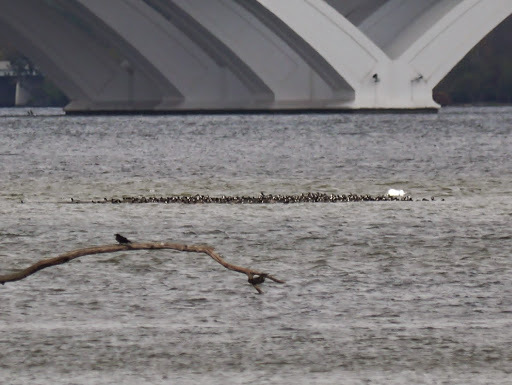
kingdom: Animalia
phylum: Chordata
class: Aves
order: Gruiformes
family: Rallidae
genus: Fulica
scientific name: Fulica americana
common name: American coot
